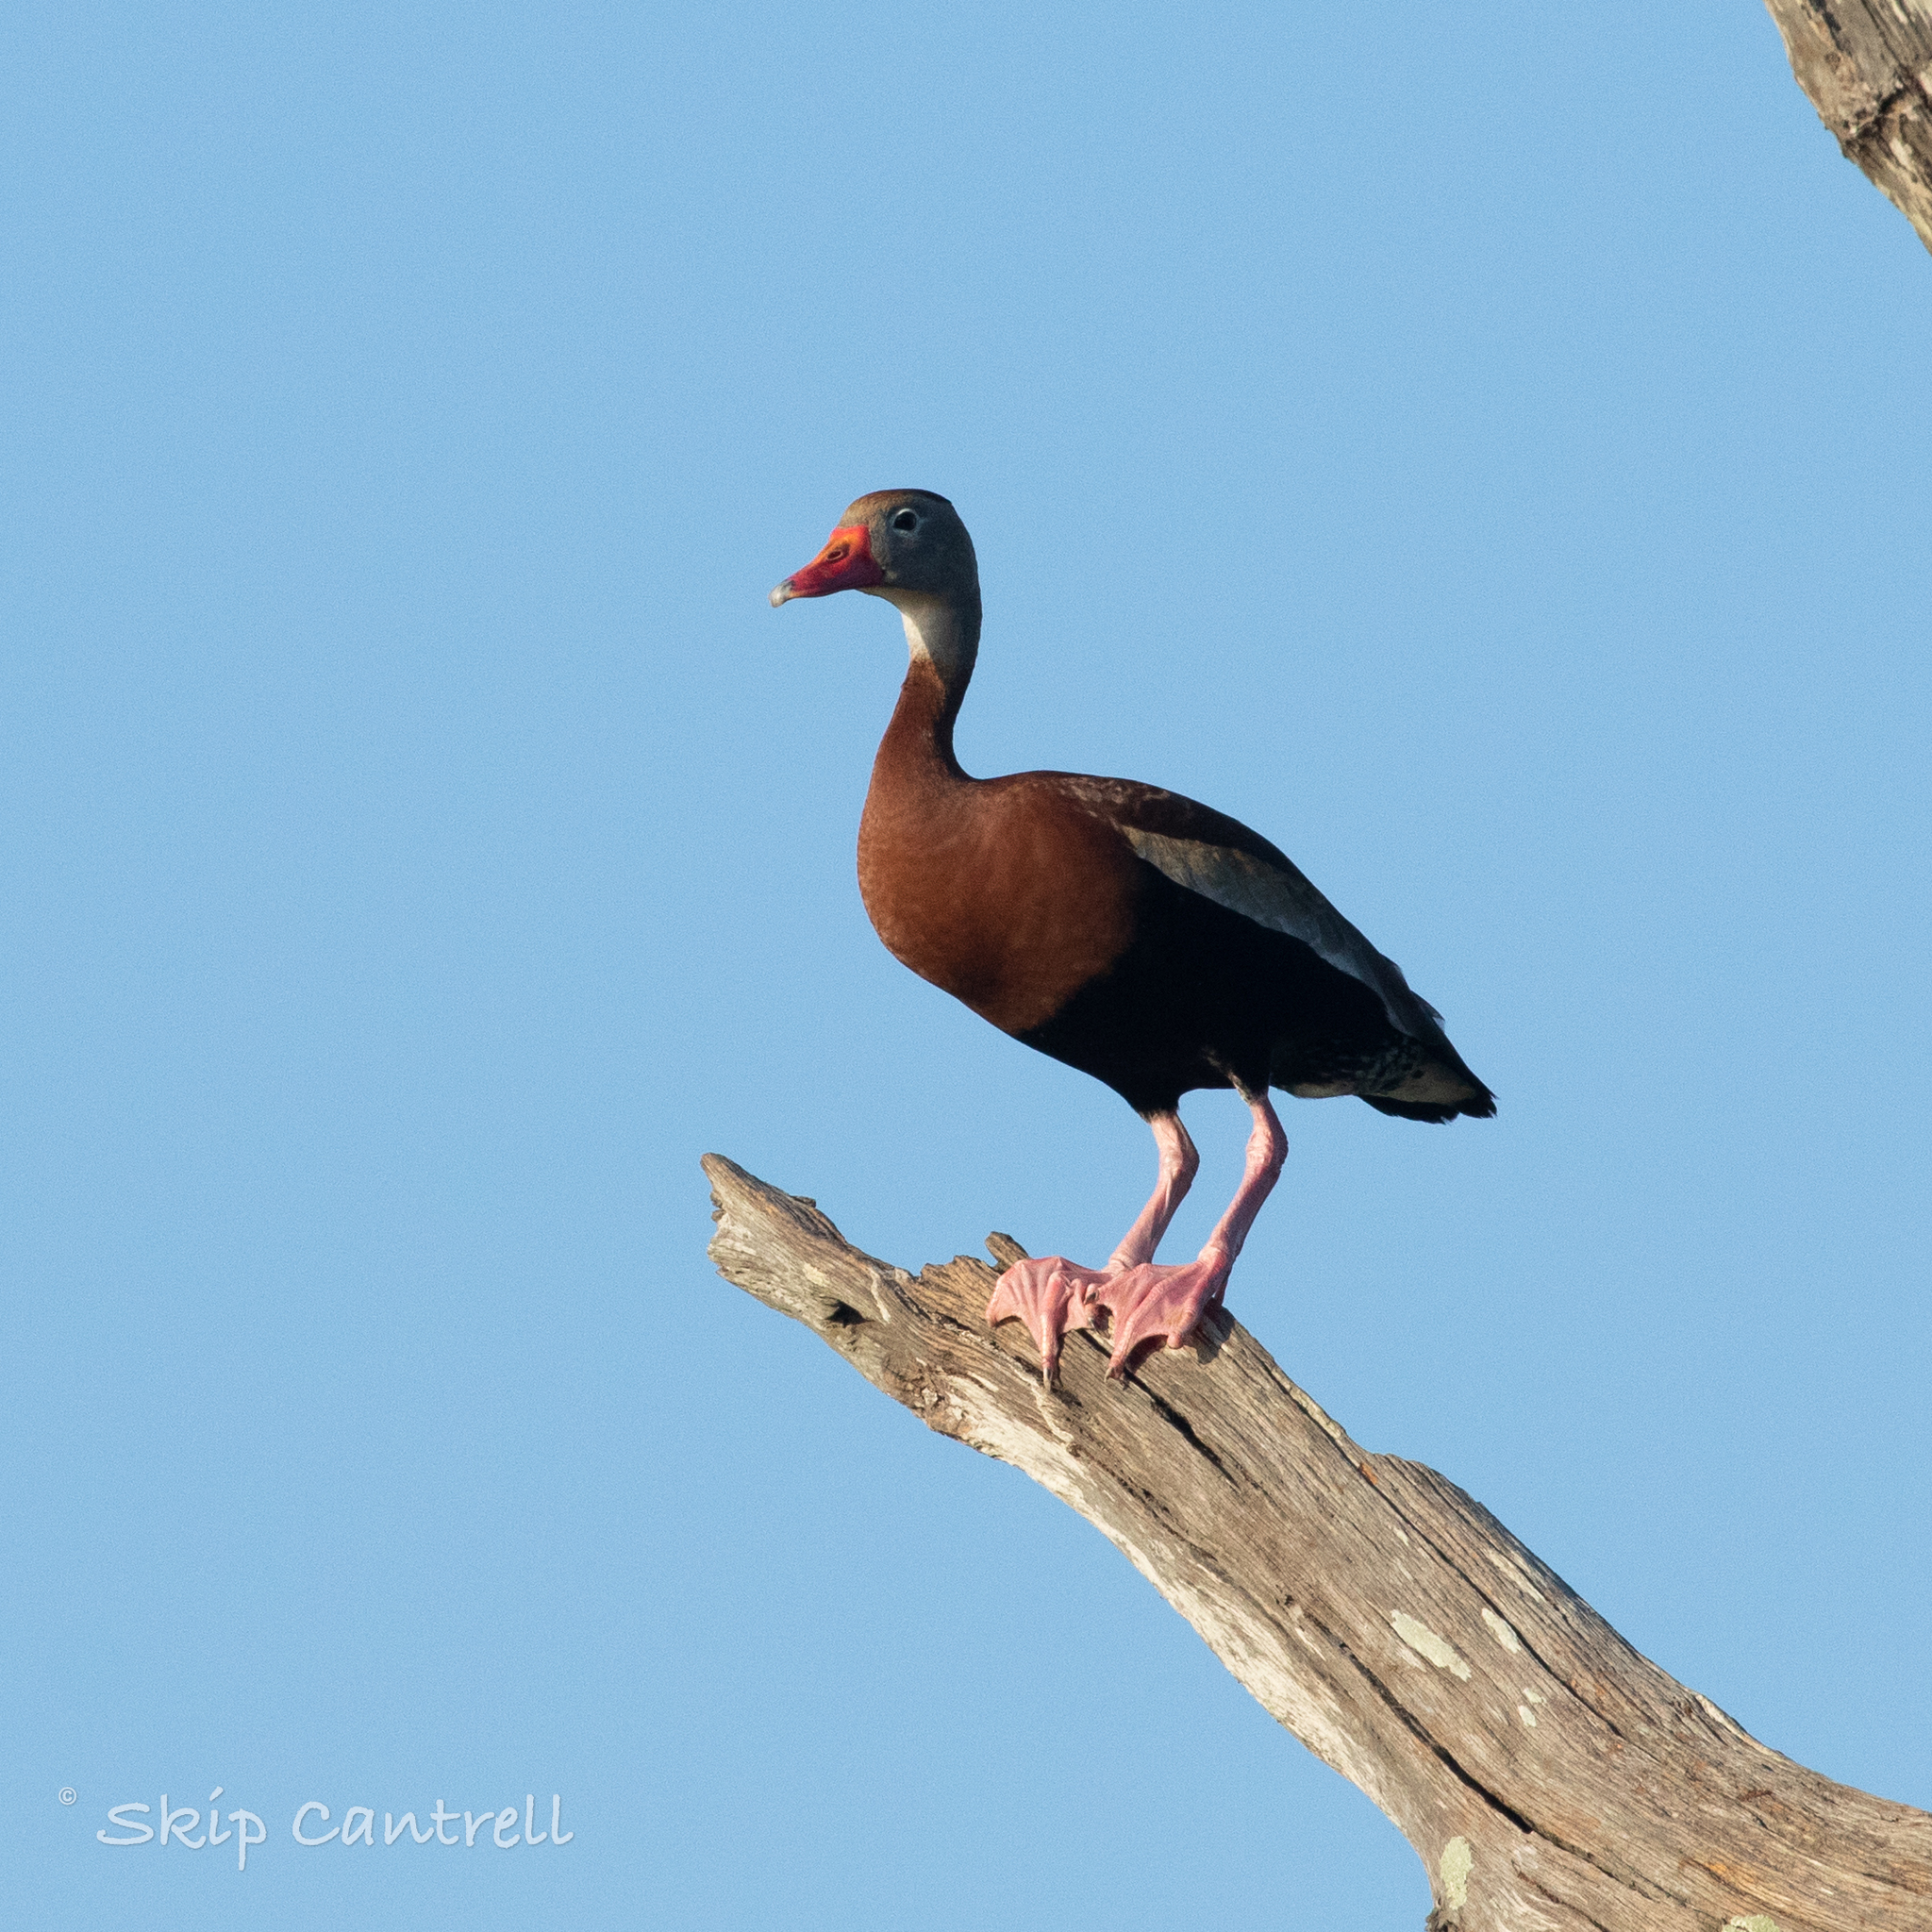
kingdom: Animalia
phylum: Chordata
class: Aves
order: Anseriformes
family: Anatidae
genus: Dendrocygna
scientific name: Dendrocygna autumnalis
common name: Black-bellied whistling duck
